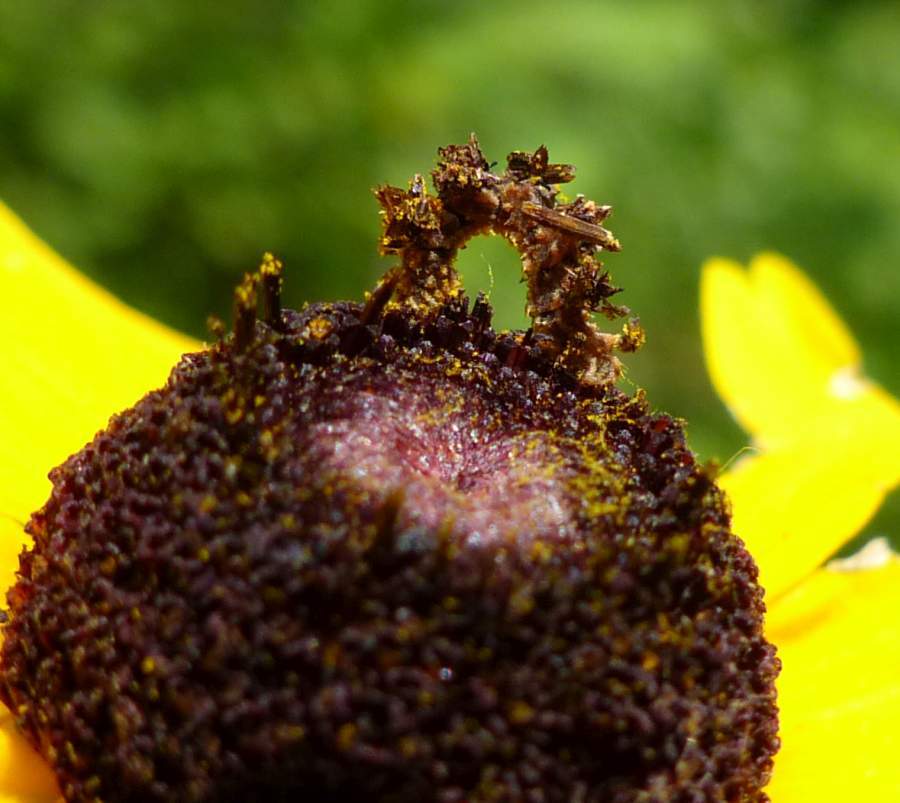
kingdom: Animalia
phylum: Arthropoda
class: Insecta
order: Lepidoptera
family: Geometridae
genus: Synchlora
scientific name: Synchlora aerata
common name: Wavy-lined emerald
